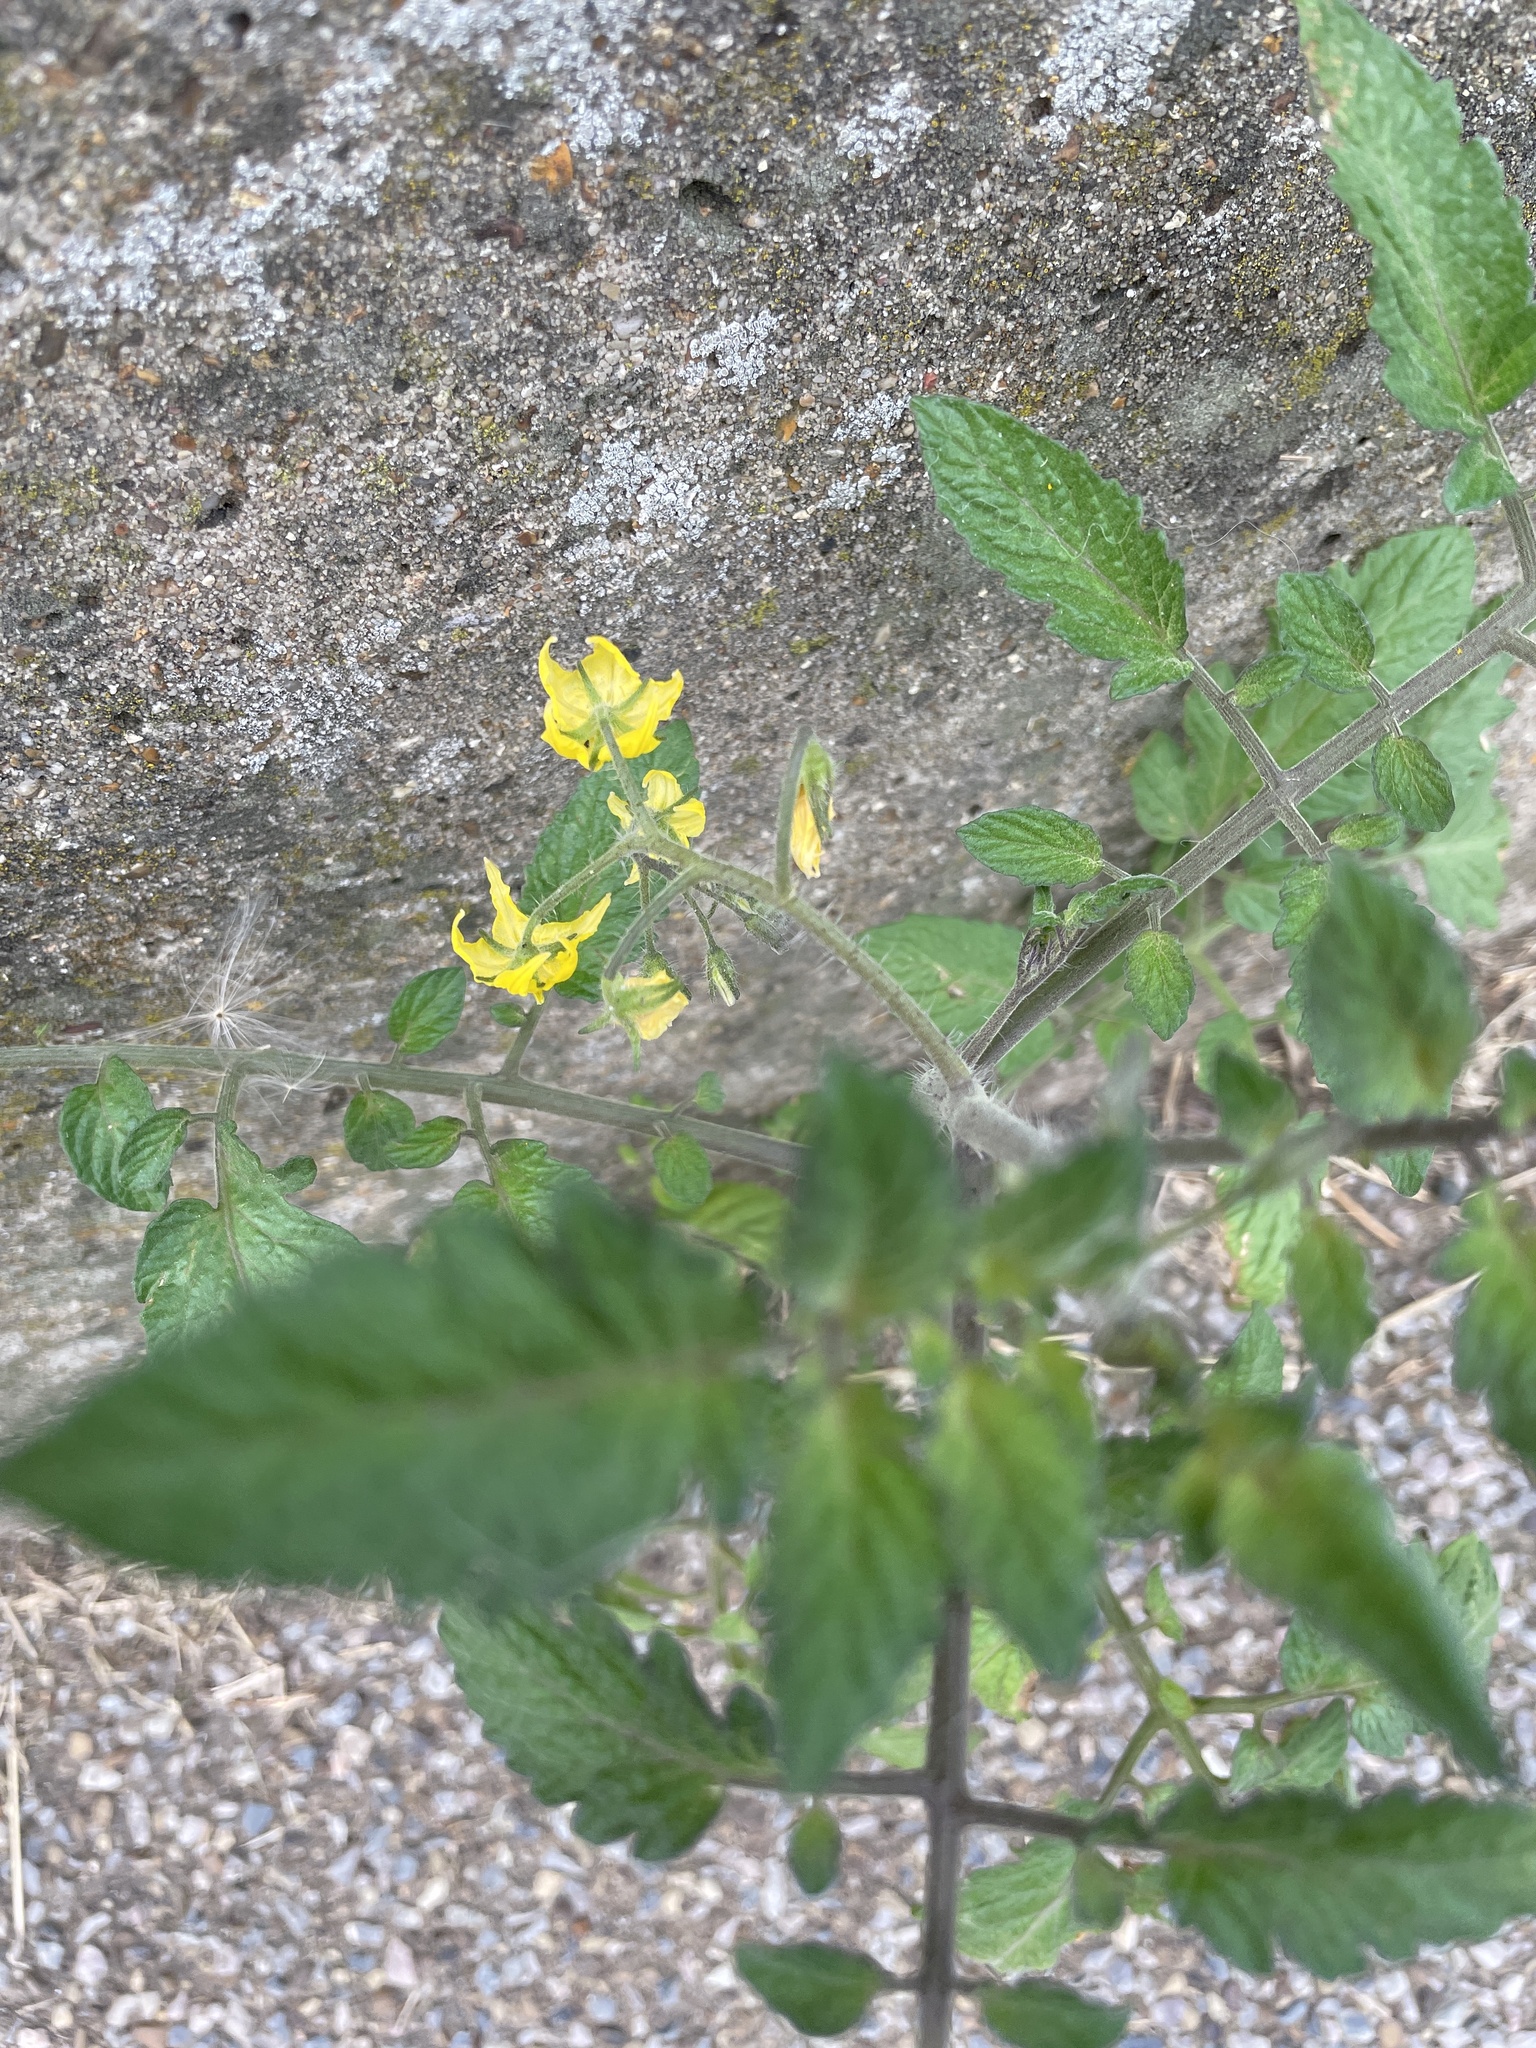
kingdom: Plantae
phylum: Tracheophyta
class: Magnoliopsida
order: Solanales
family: Solanaceae
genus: Solanum
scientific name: Solanum lycopersicum
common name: Garden tomato
